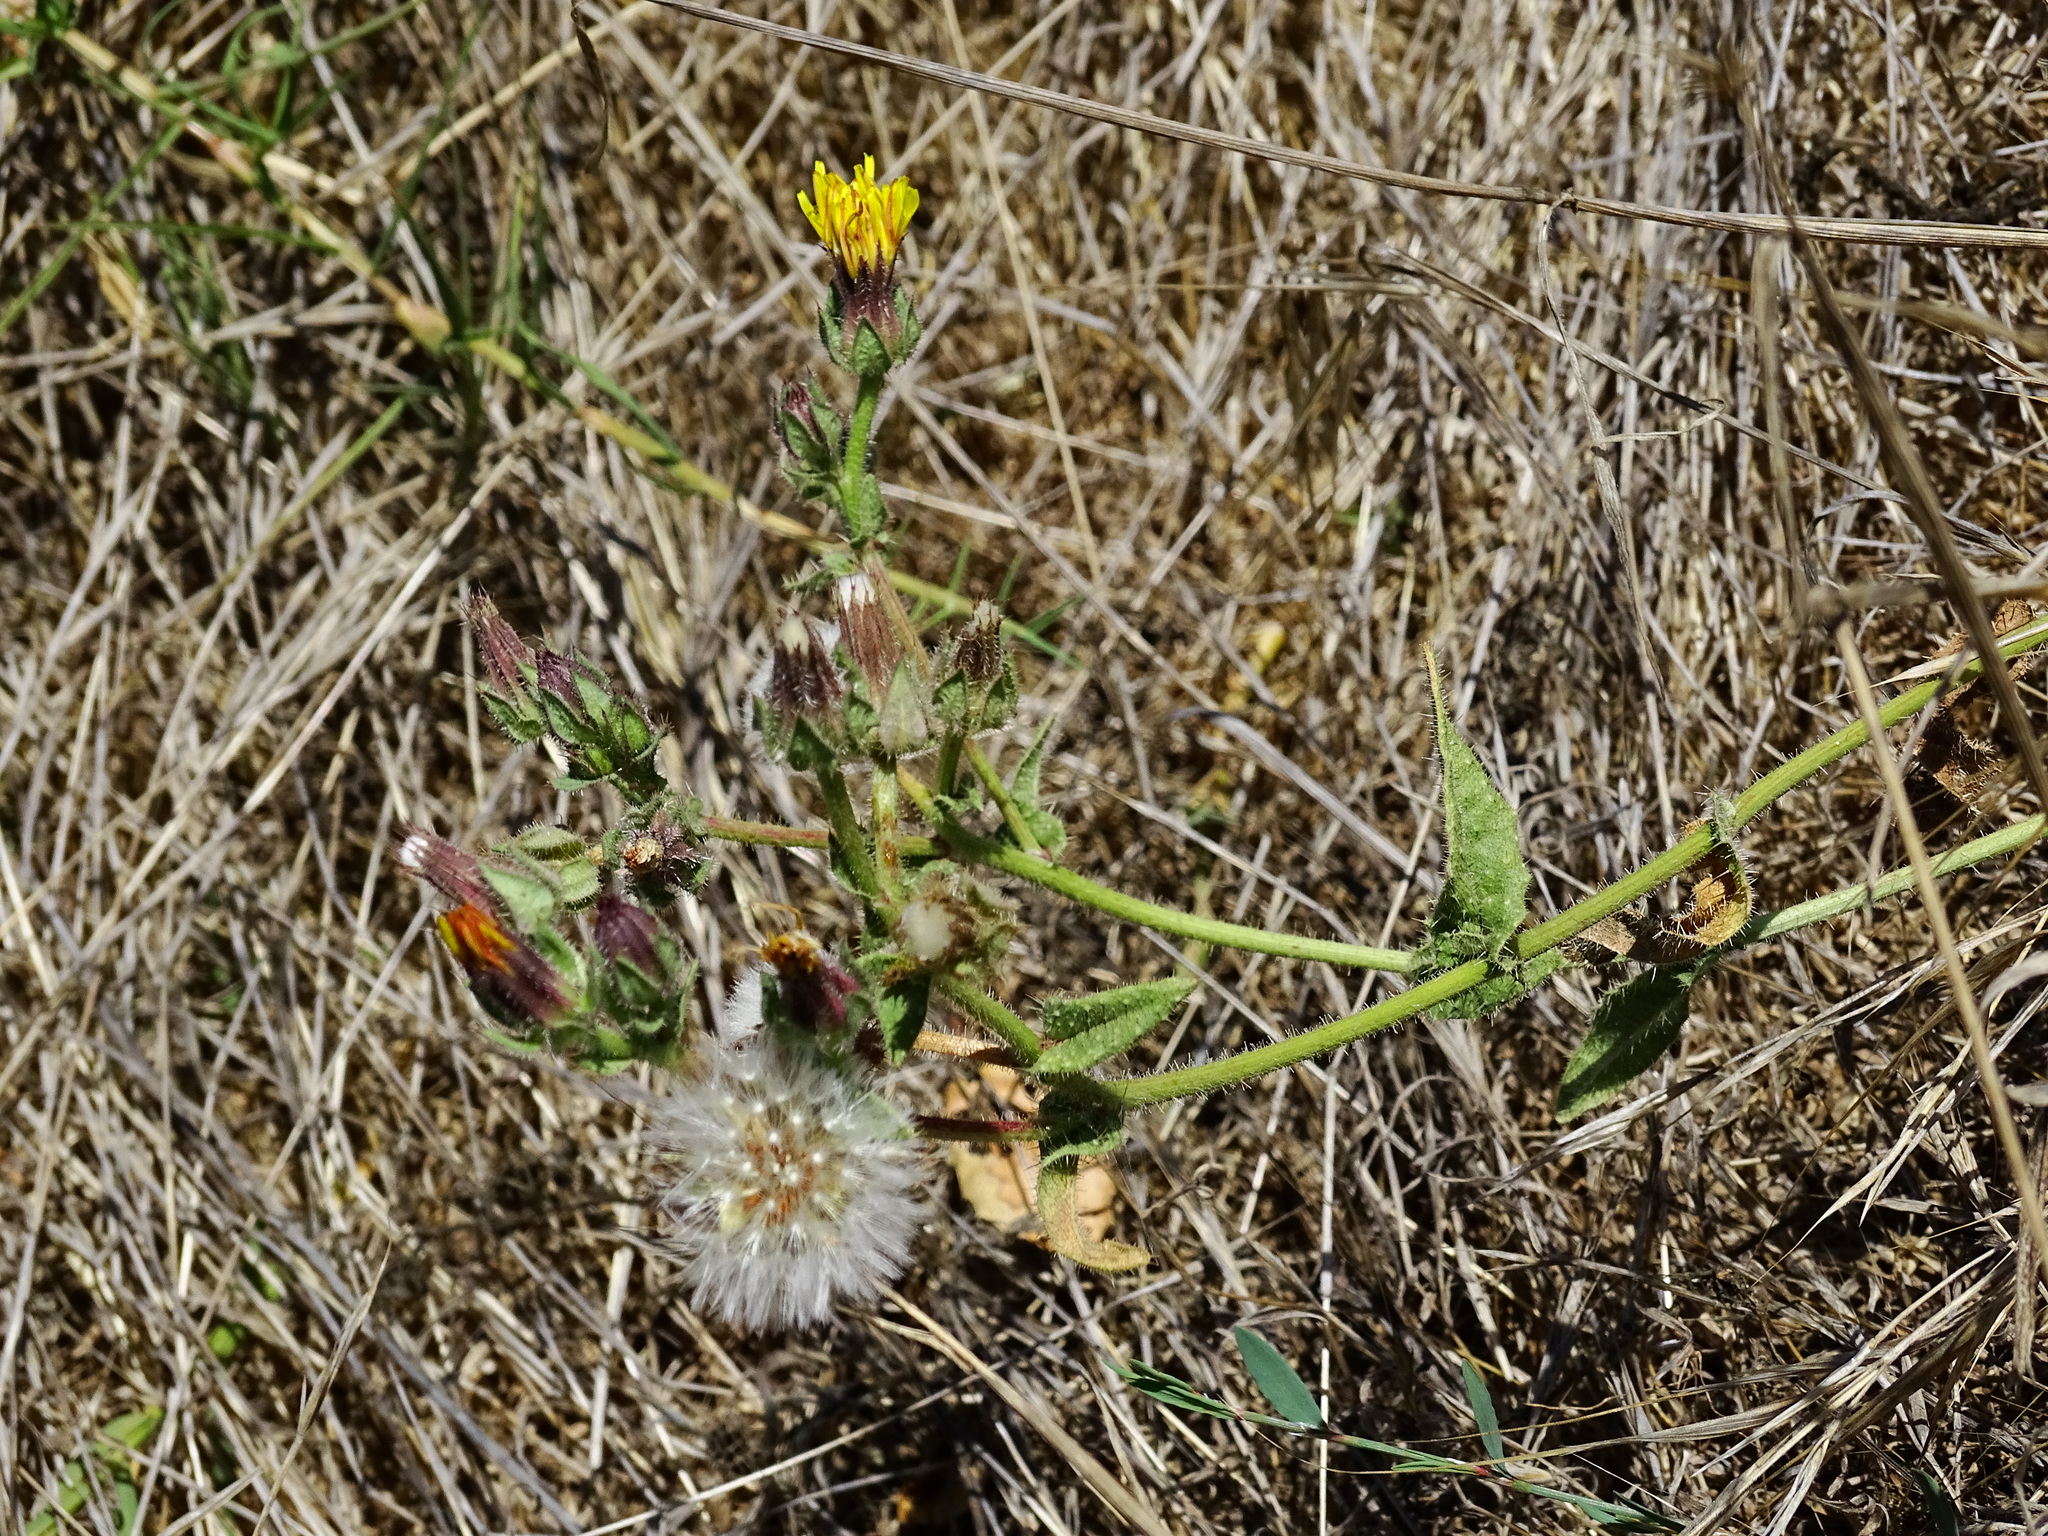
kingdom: Plantae
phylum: Tracheophyta
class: Magnoliopsida
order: Asterales
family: Asteraceae
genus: Helminthotheca
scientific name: Helminthotheca echioides
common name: Ox-tongue
